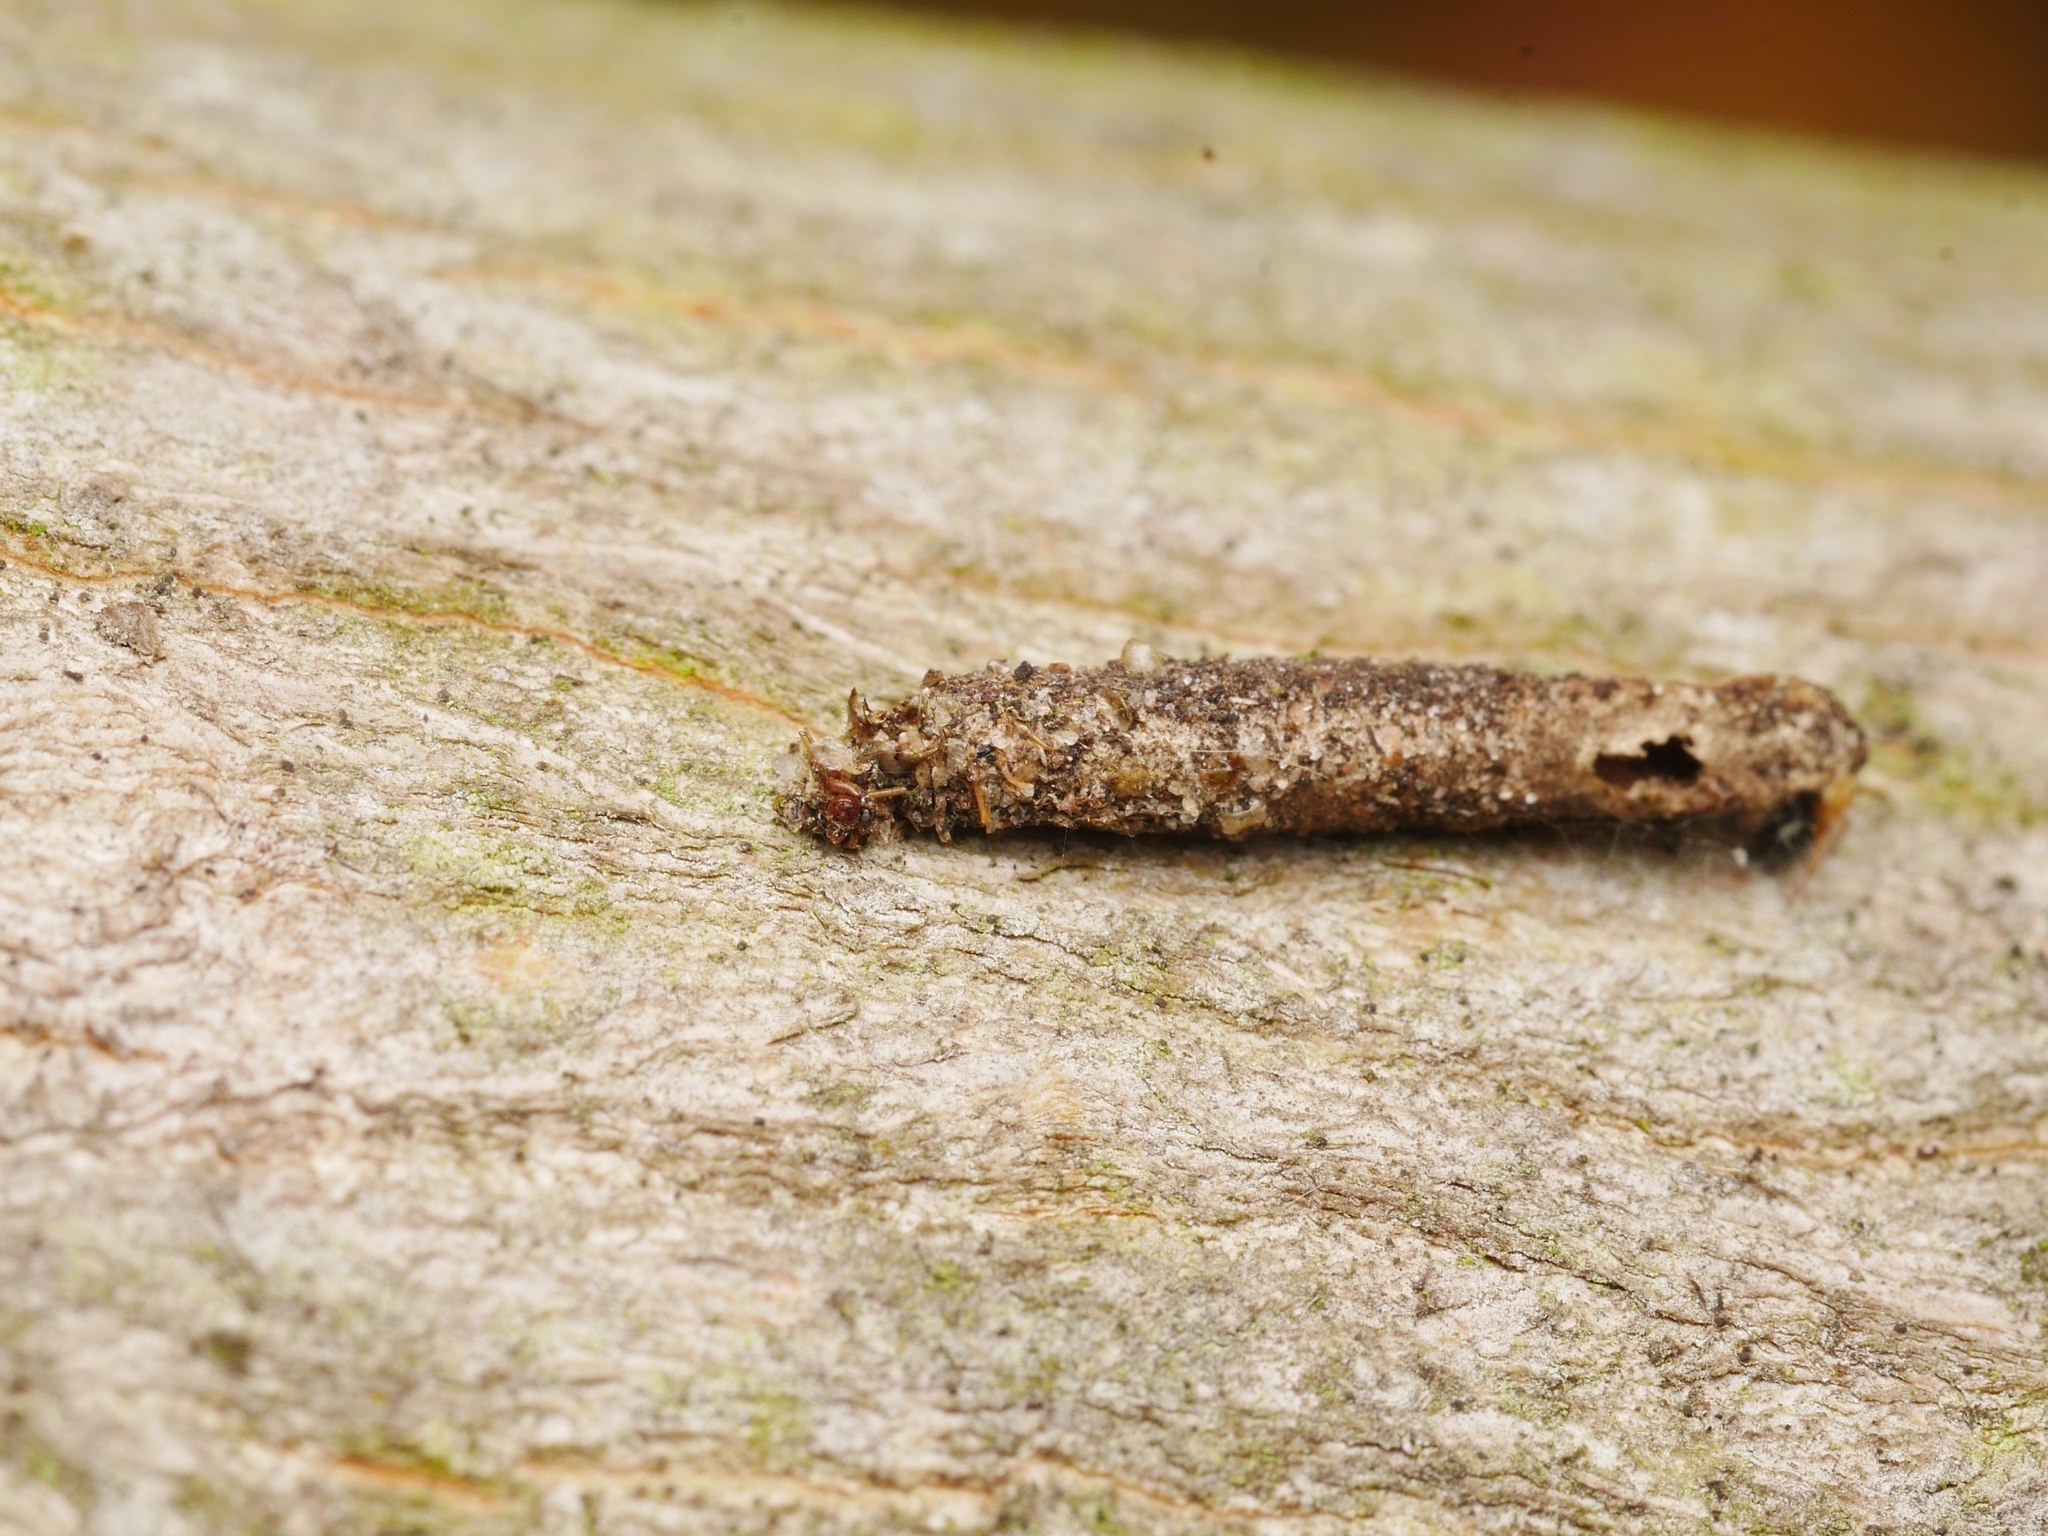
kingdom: Animalia
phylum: Arthropoda
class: Insecta
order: Lepidoptera
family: Psychidae
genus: Taleporia
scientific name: Taleporia tubulosa
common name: Brown smoke
